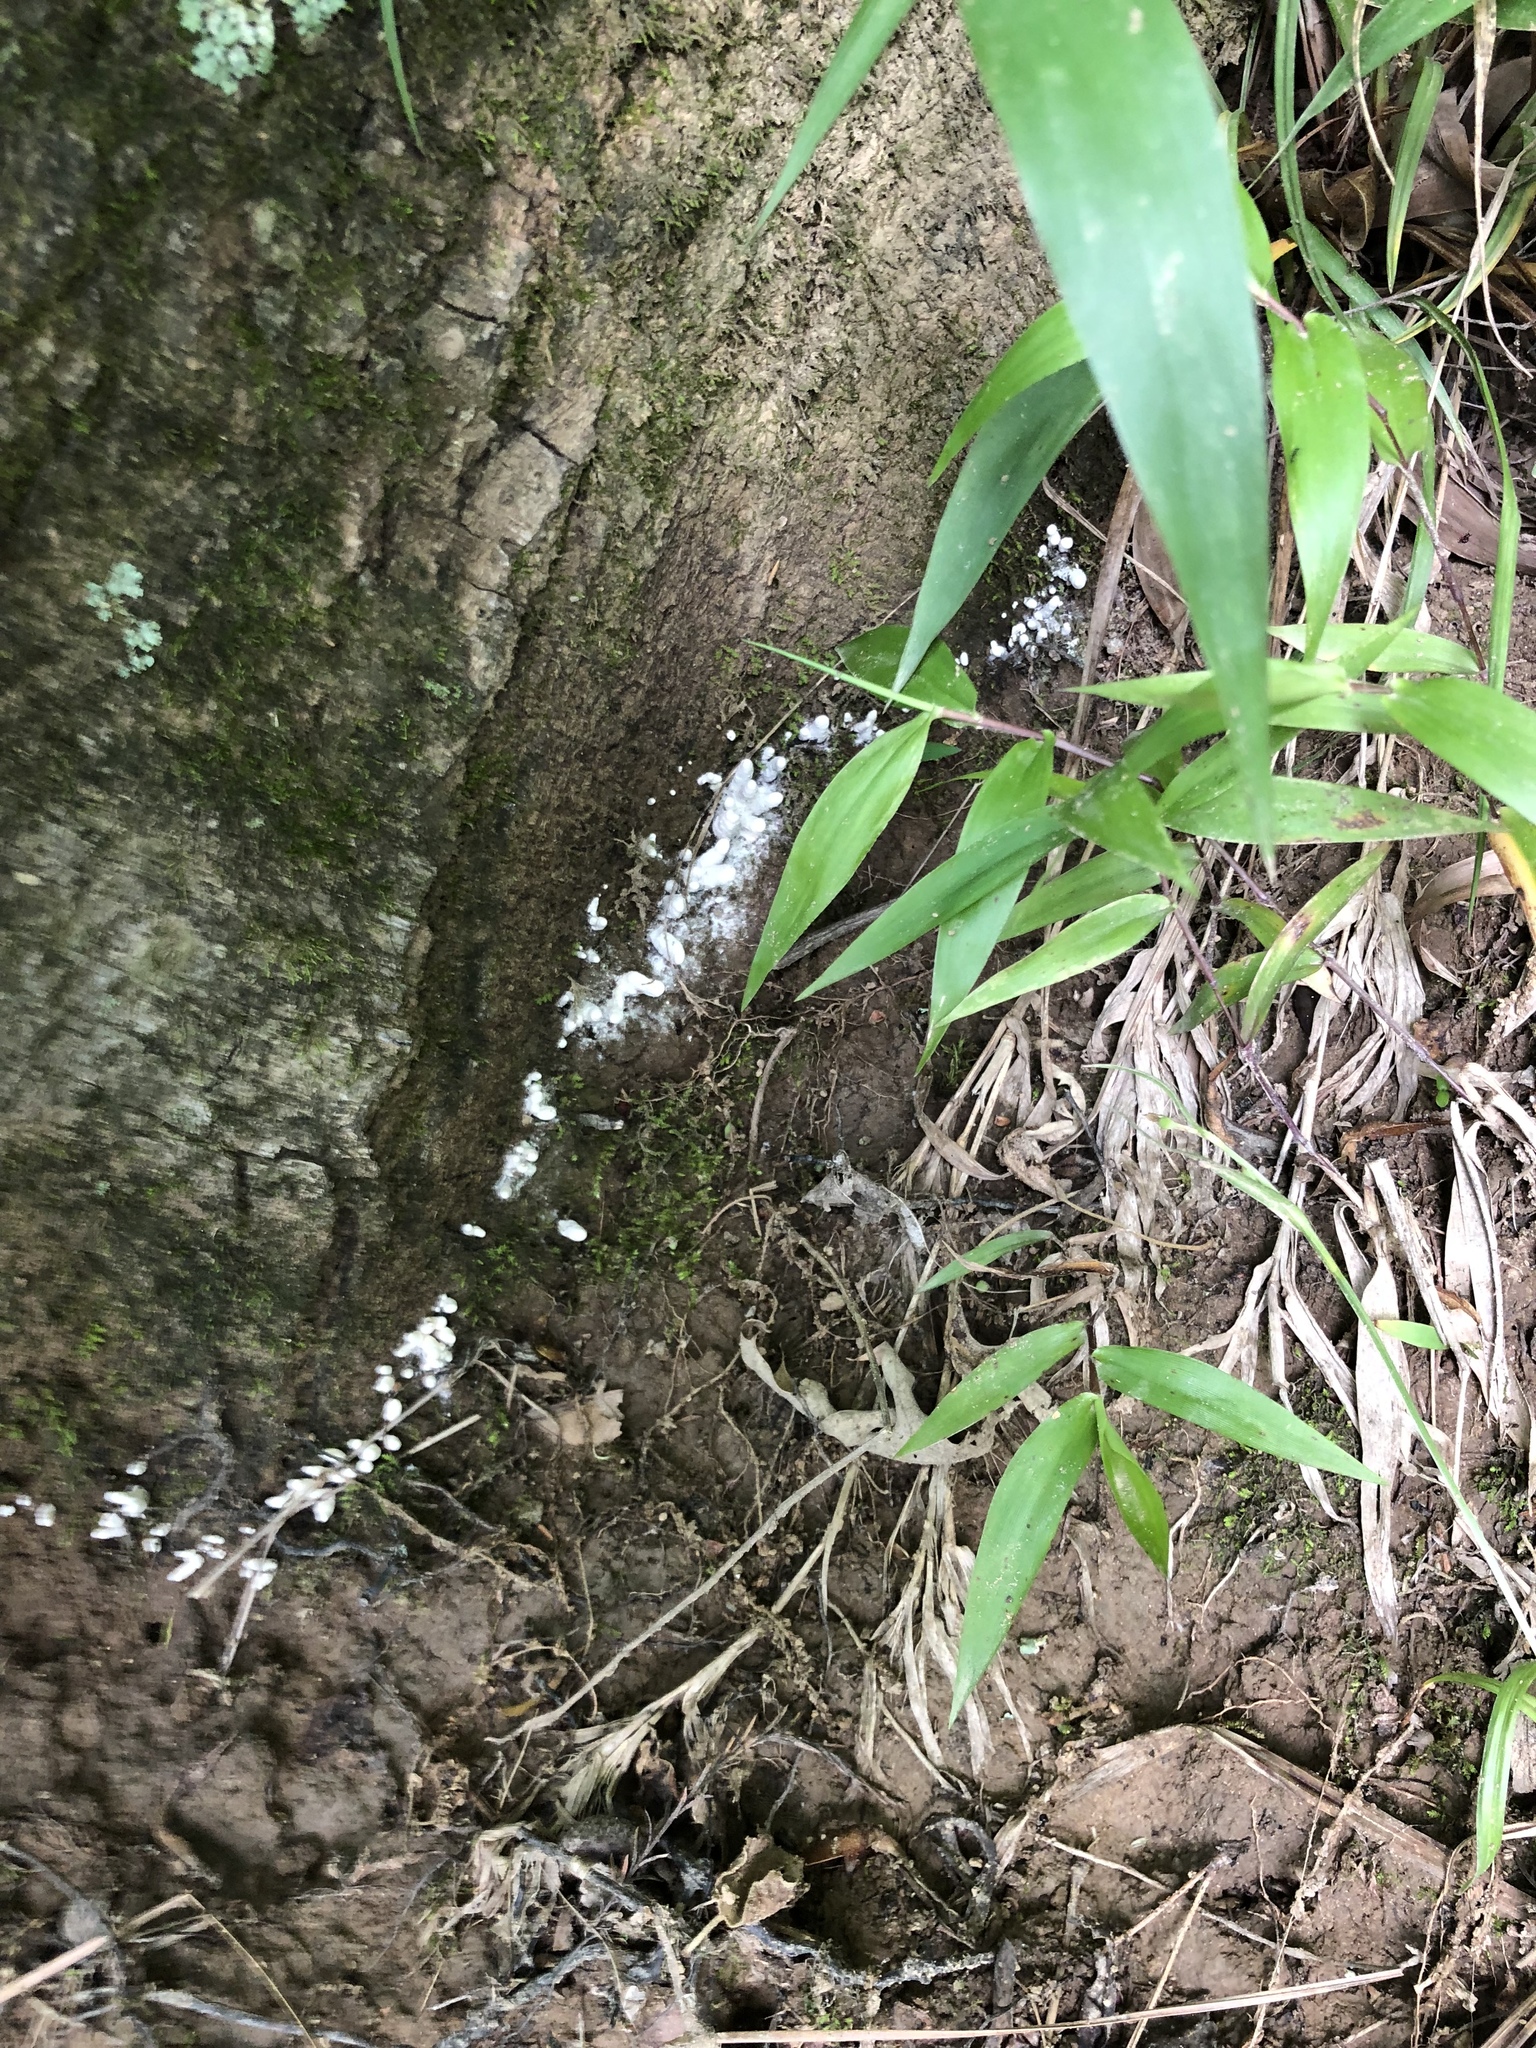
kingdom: Protozoa
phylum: Mycetozoa
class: Myxomycetes
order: Trichiales
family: Arcyriaceae
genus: Arcyria
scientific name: Arcyria cinerea
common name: White carnival candy slime mold
